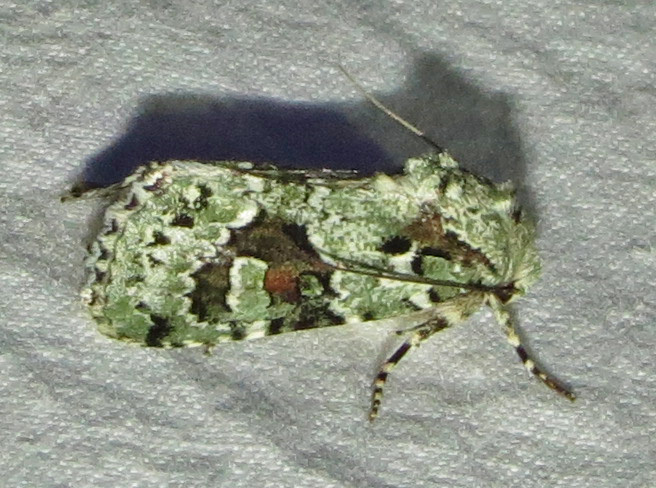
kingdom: Animalia
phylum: Arthropoda
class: Insecta
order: Lepidoptera
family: Noctuidae
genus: Lacinipolia
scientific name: Lacinipolia laudabilis
